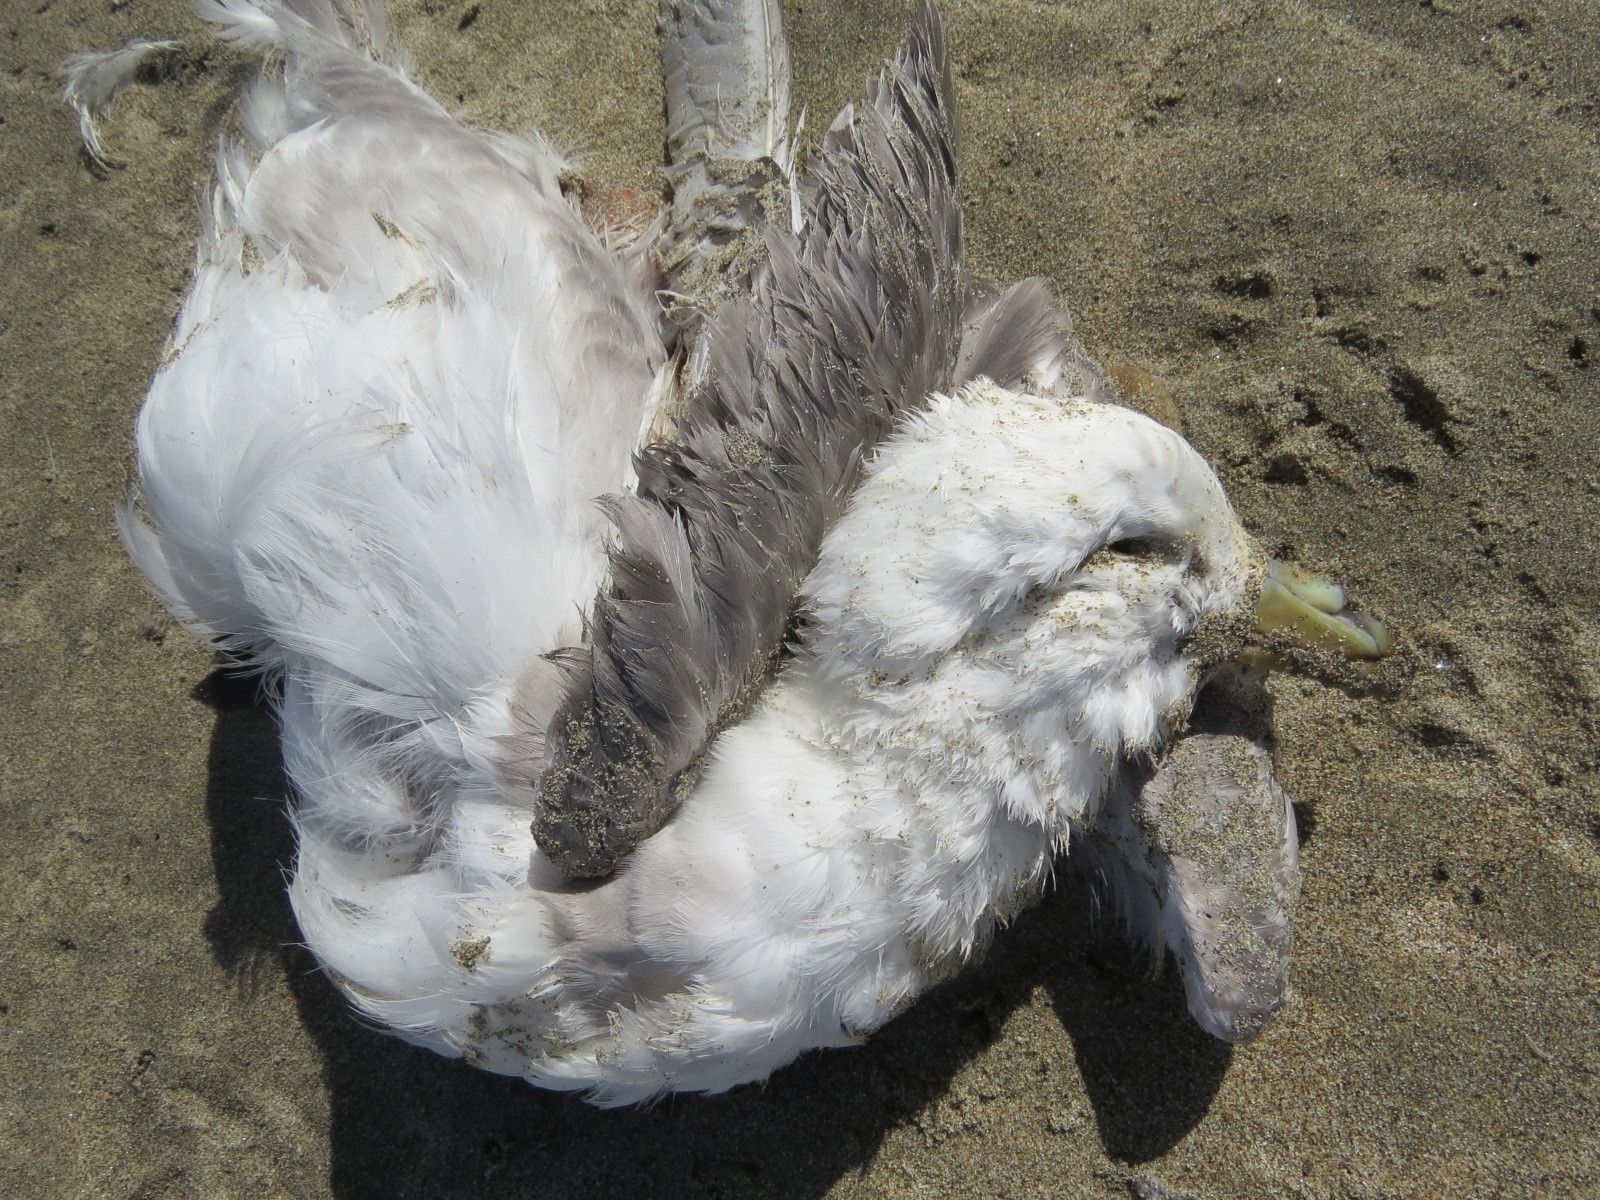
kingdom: Animalia
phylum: Chordata
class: Aves
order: Passeriformes
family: Corvidae
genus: Corvus
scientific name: Corvus corax
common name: Common raven
